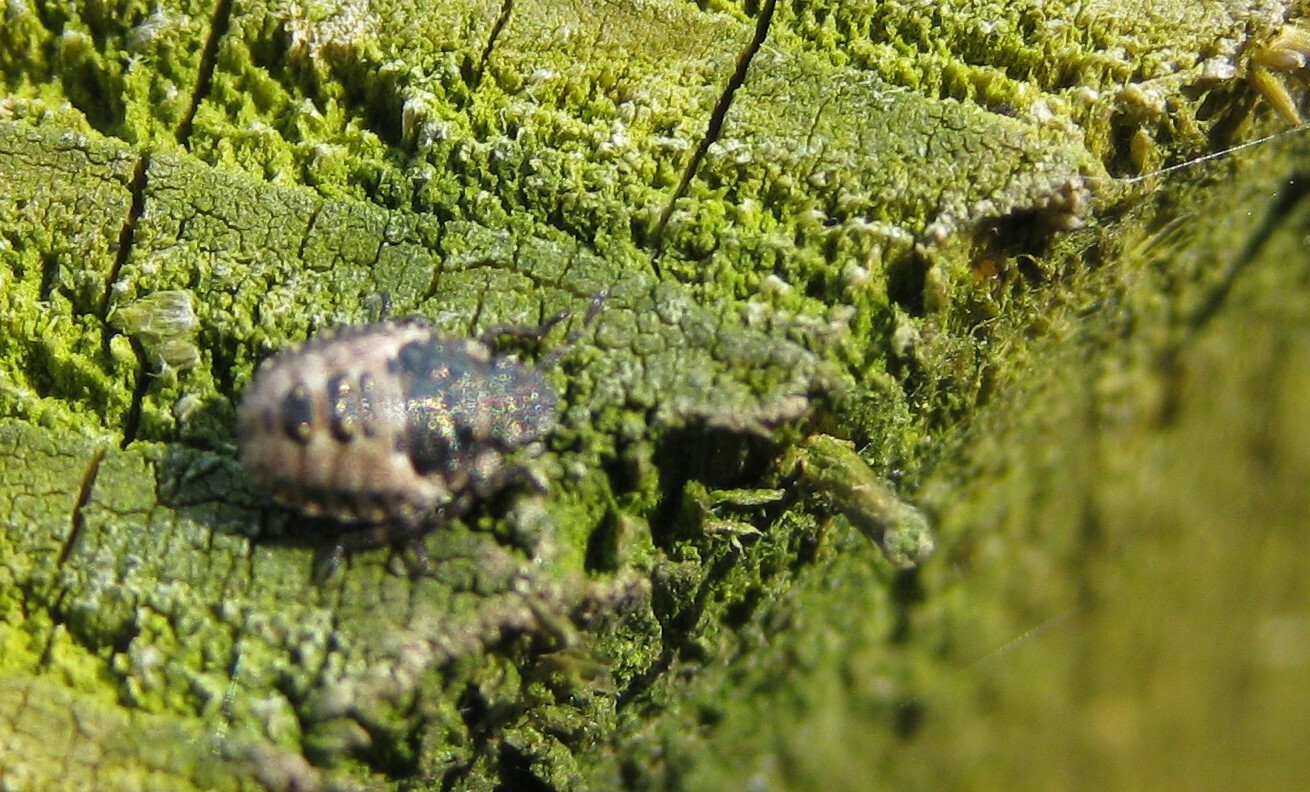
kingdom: Animalia
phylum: Arthropoda
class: Insecta
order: Hemiptera
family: Pentatomidae
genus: Pentatoma
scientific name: Pentatoma rufipes
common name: Forest bug
